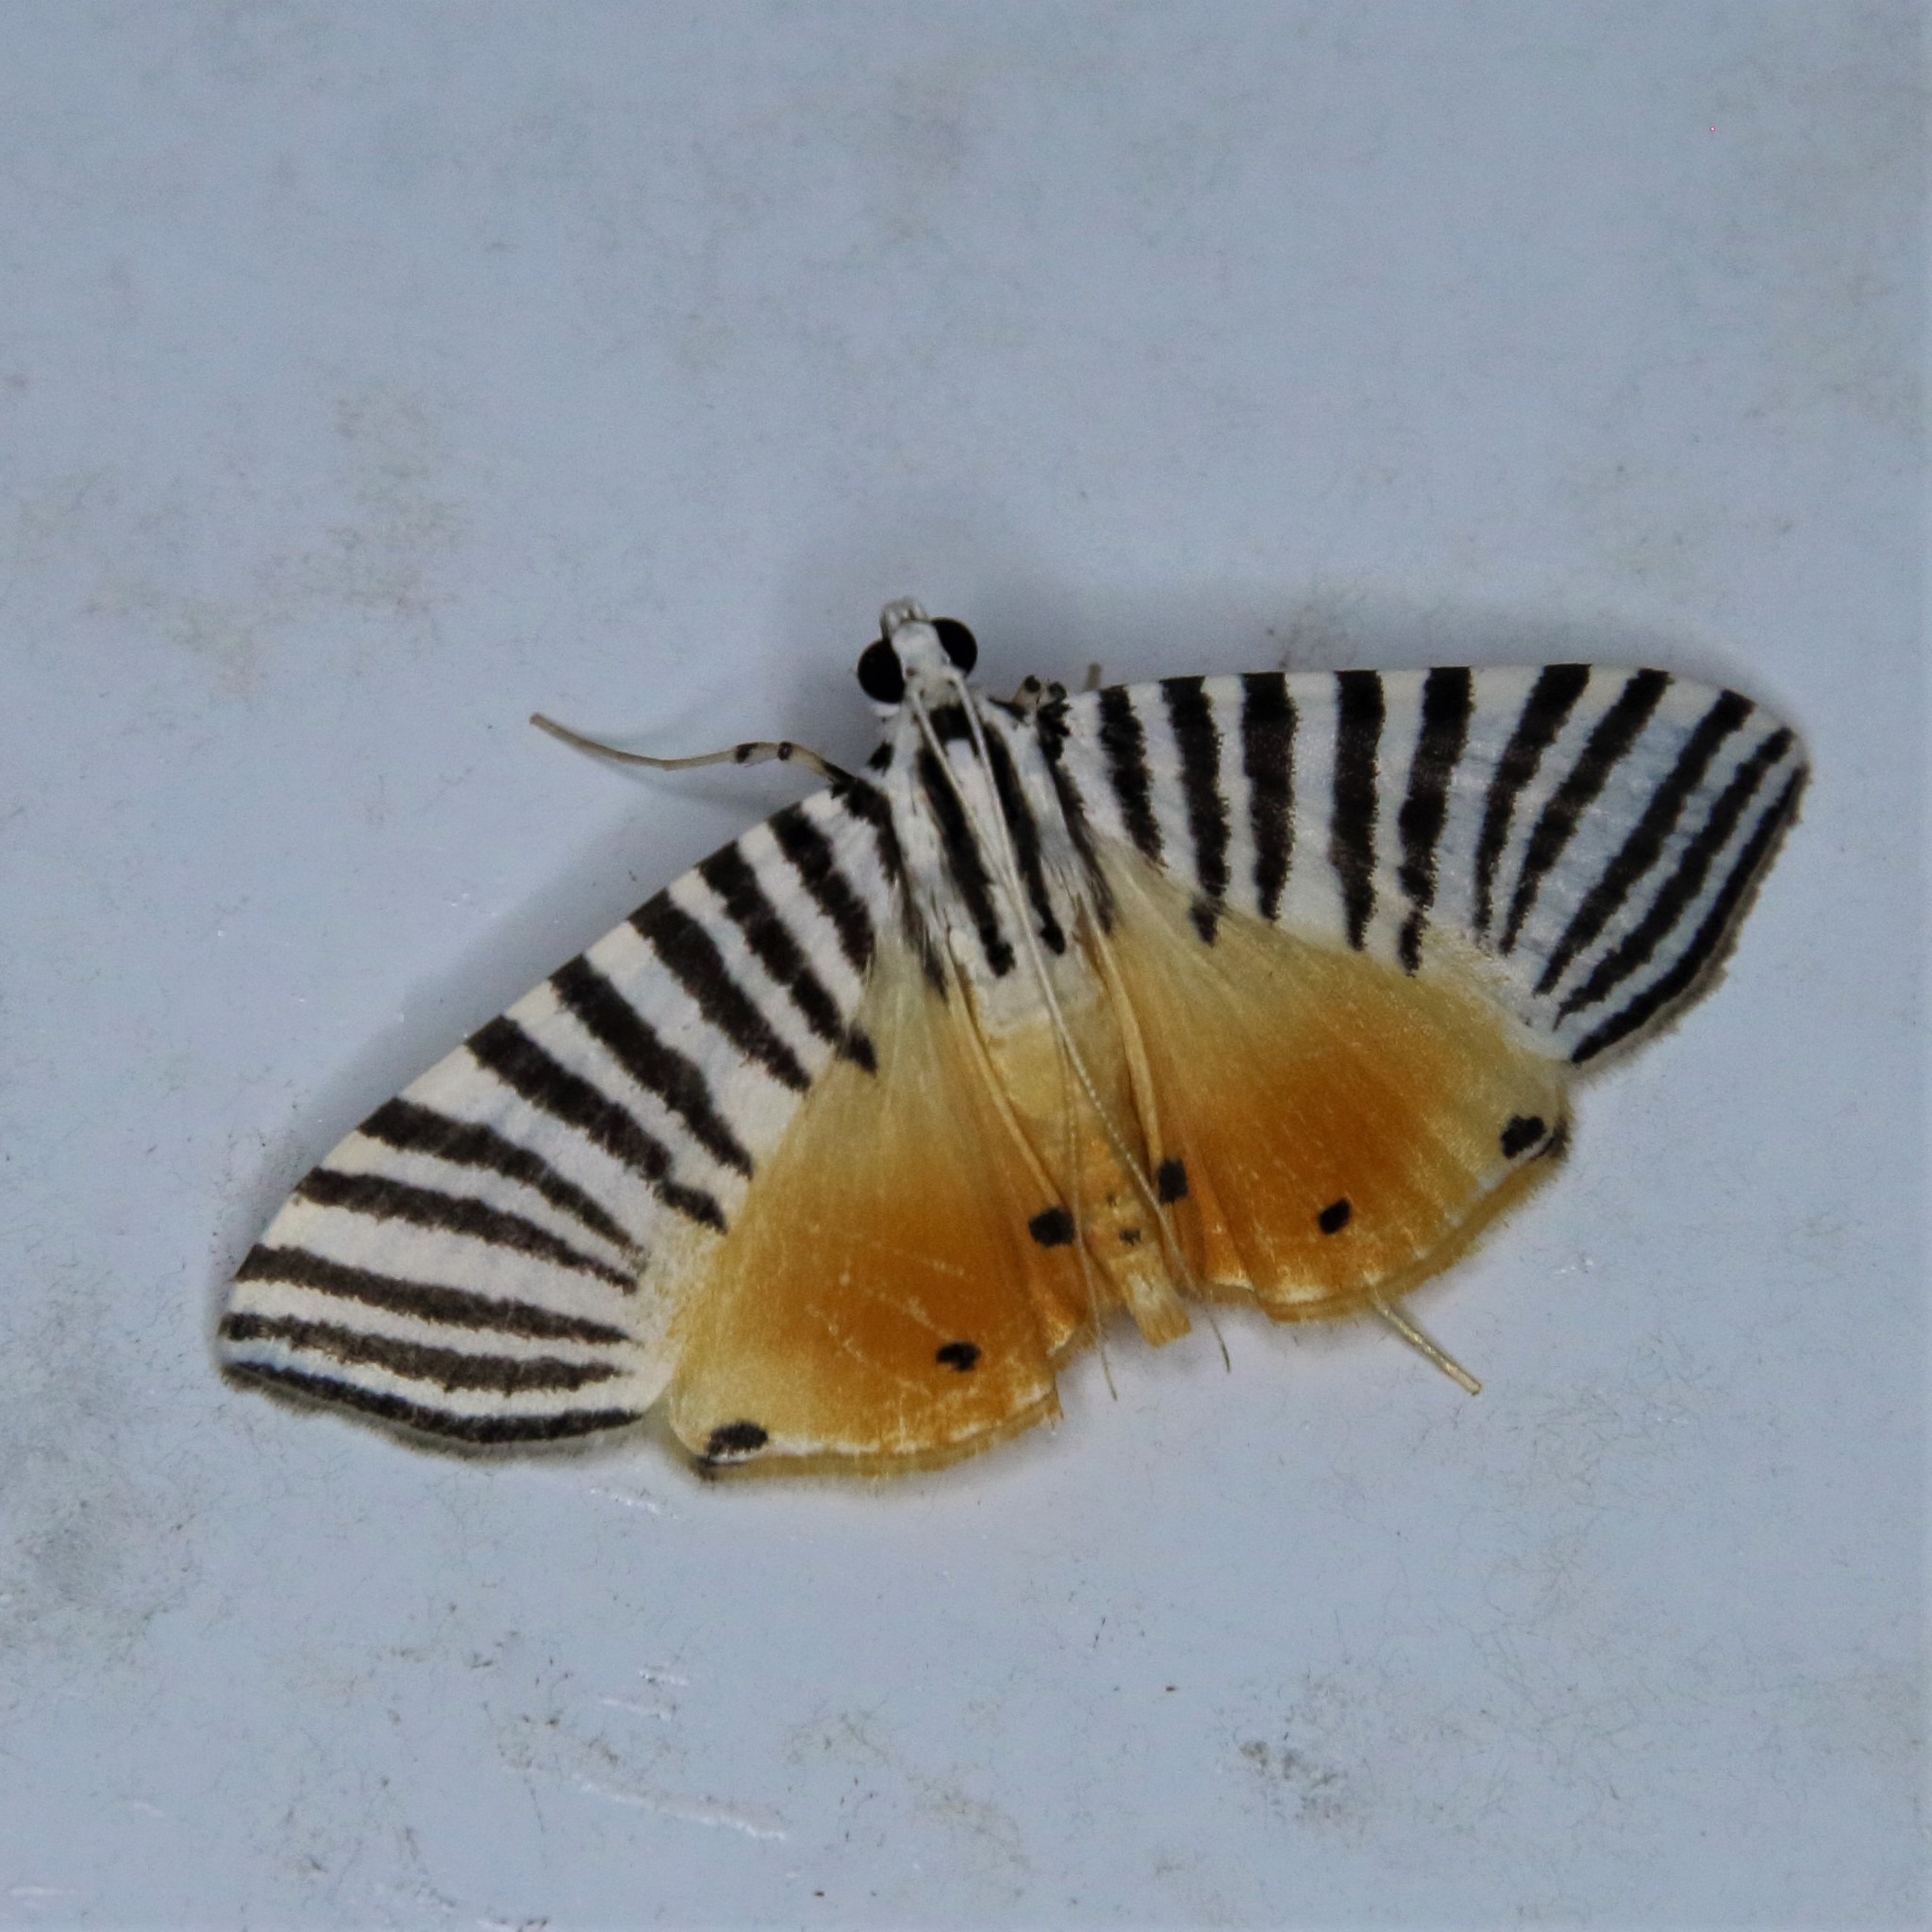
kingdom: Animalia
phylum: Arthropoda
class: Insecta
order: Lepidoptera
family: Crambidae
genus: Dichocrocis
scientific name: Dichocrocis zebralis
